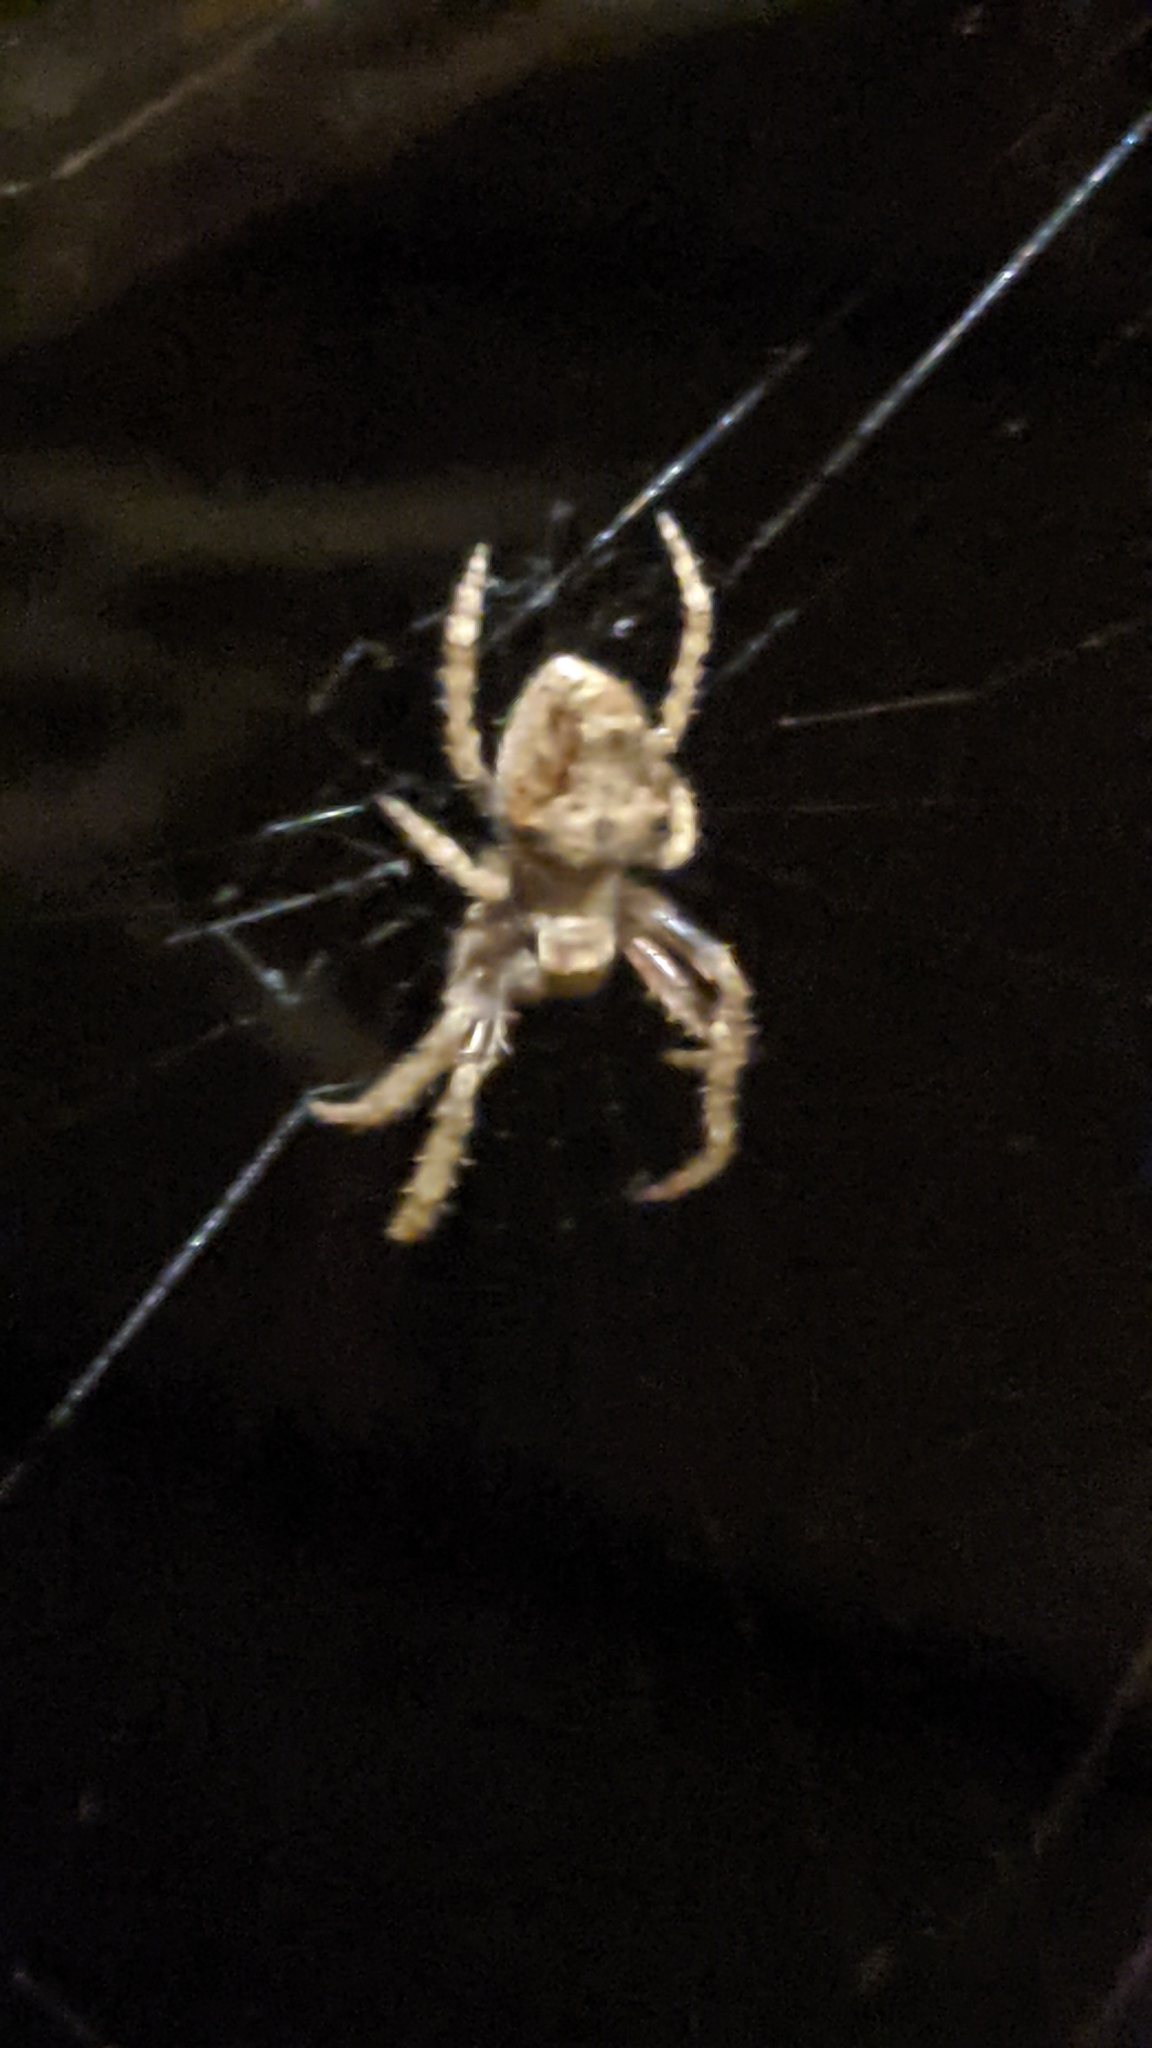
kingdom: Animalia
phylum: Arthropoda
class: Arachnida
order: Araneae
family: Araneidae
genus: Eriophora
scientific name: Eriophora pustulosa
